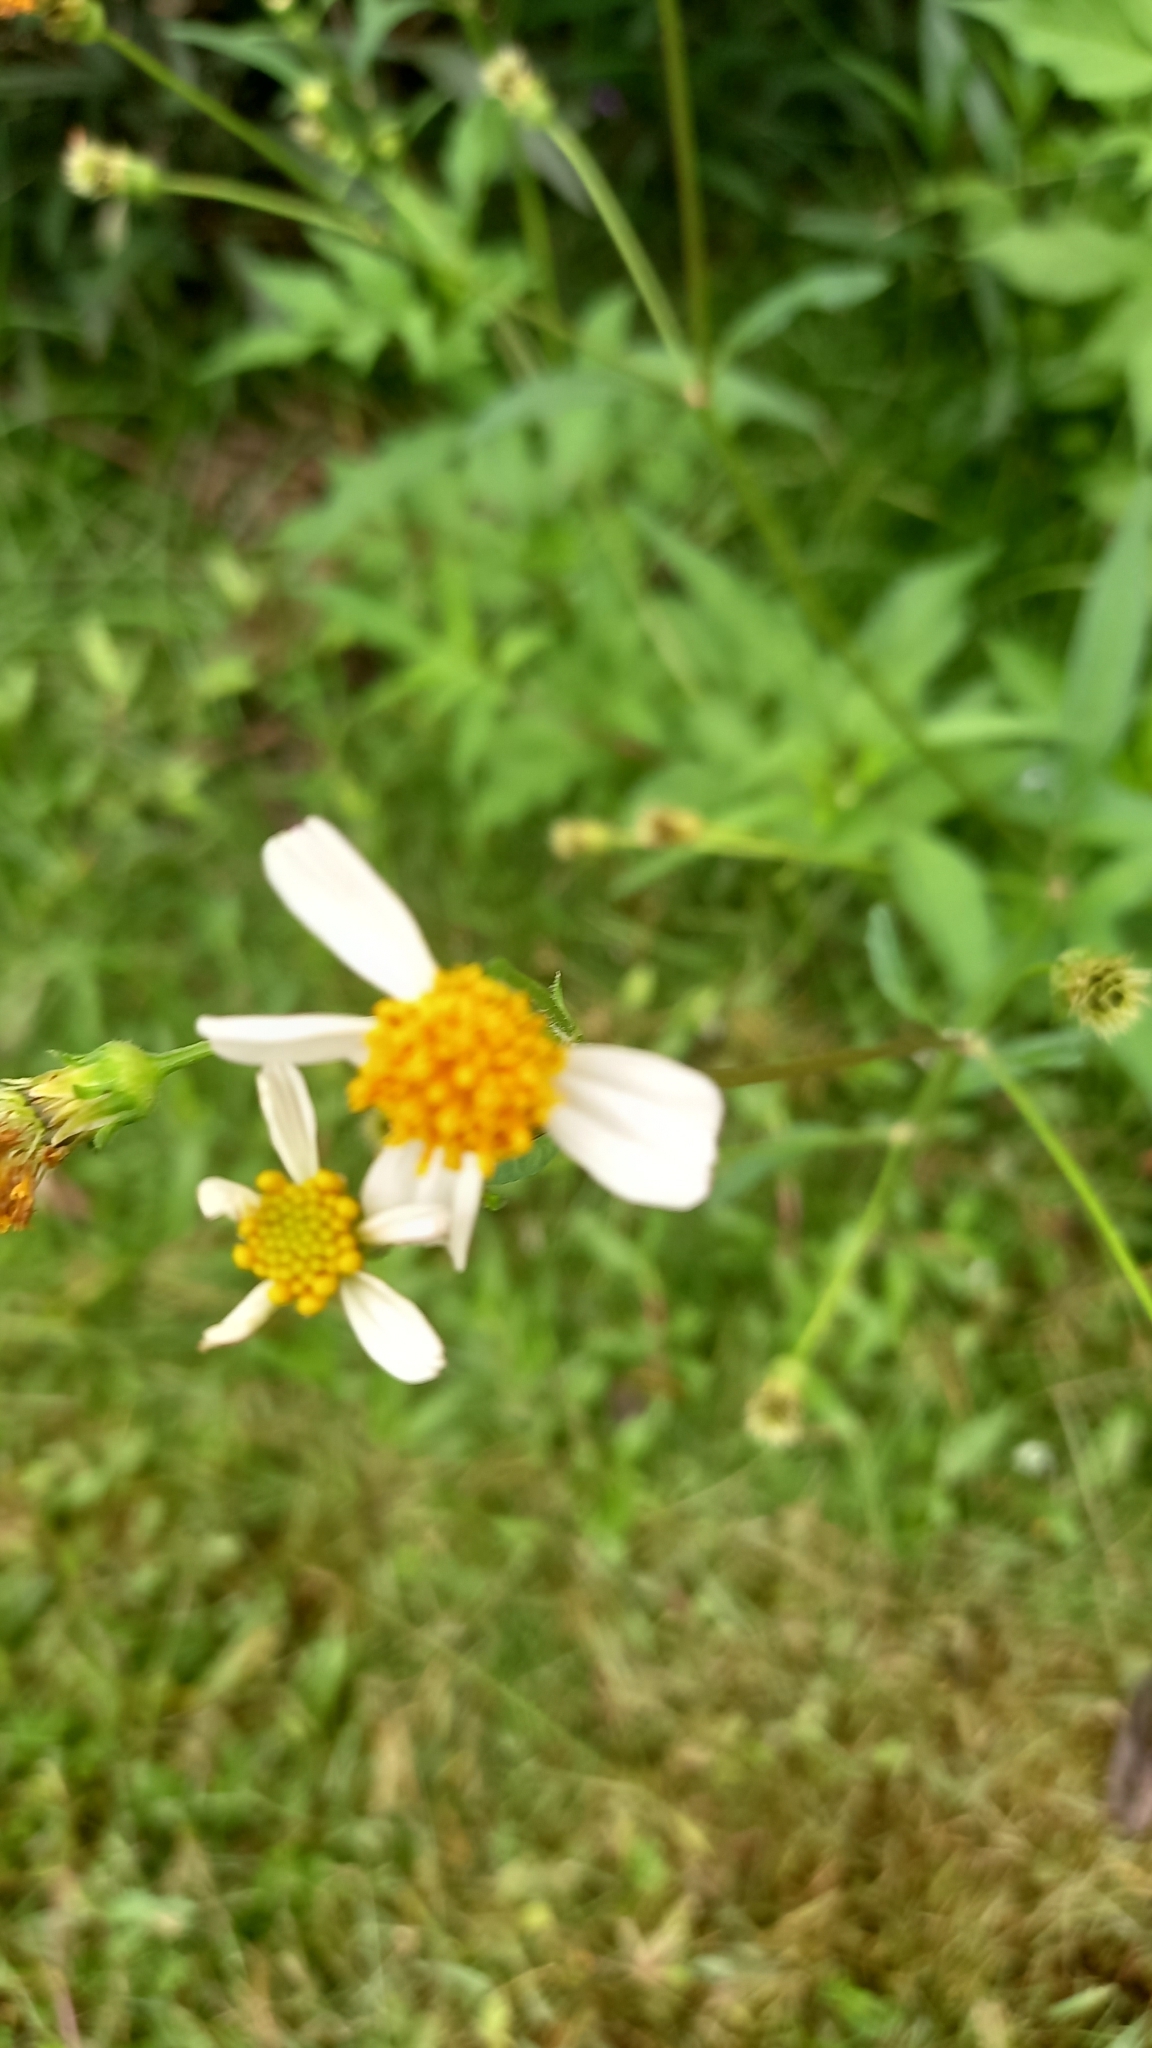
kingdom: Plantae
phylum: Tracheophyta
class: Magnoliopsida
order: Asterales
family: Asteraceae
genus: Bidens
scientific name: Bidens alba
